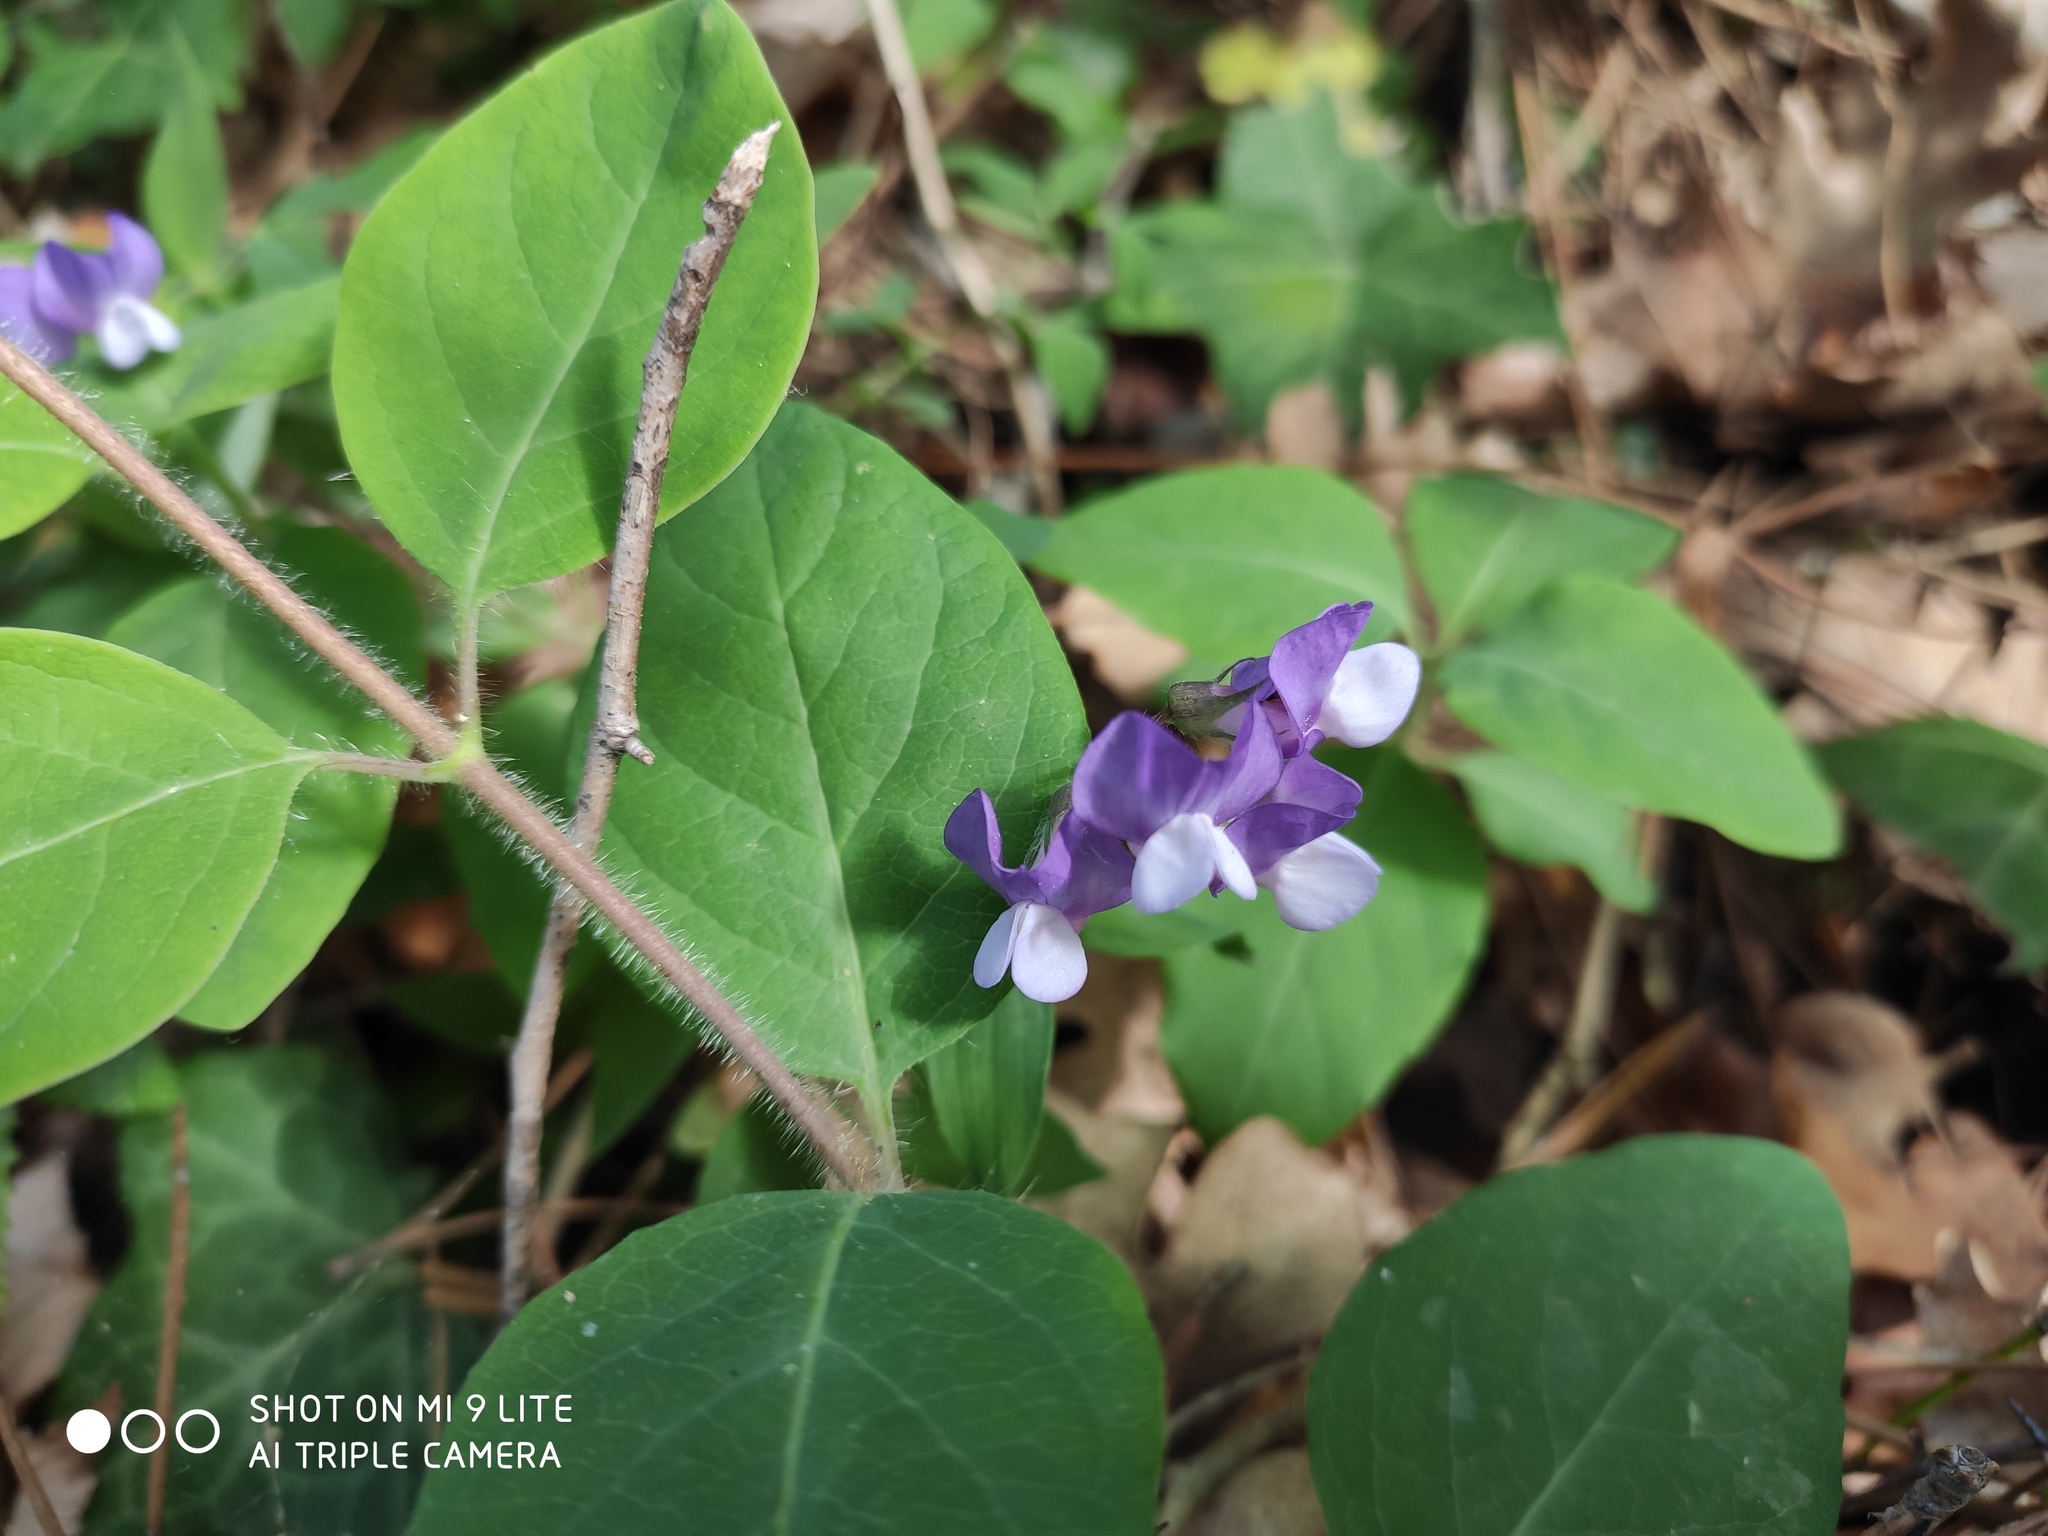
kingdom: Plantae
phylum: Tracheophyta
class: Magnoliopsida
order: Fabales
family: Fabaceae
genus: Lathyrus
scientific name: Lathyrus laxiflorus
